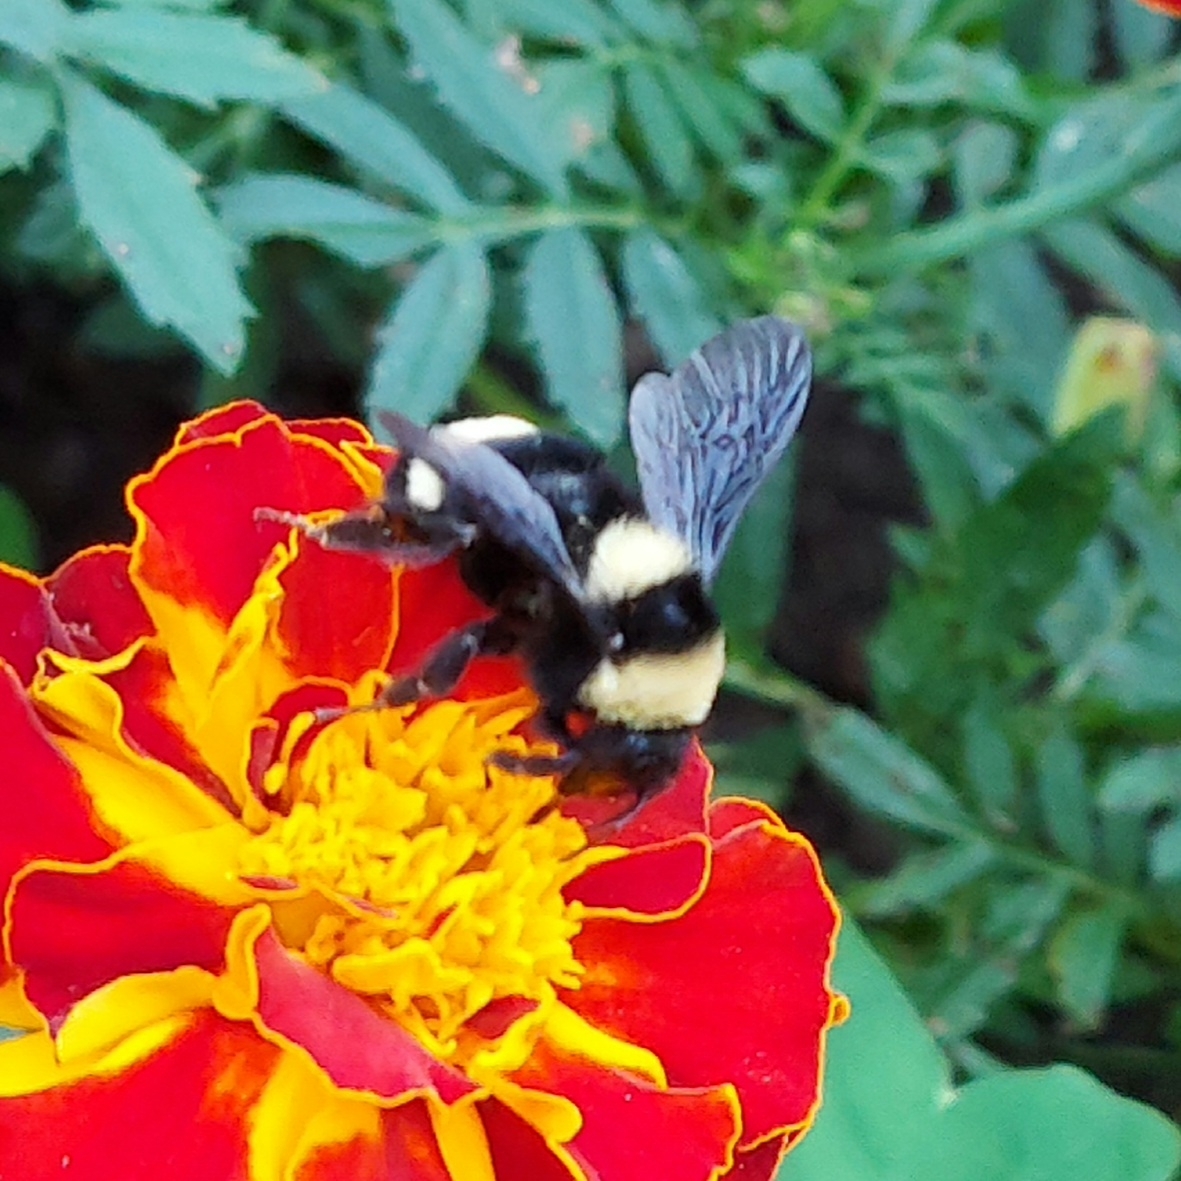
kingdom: Animalia
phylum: Arthropoda
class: Insecta
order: Hymenoptera
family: Apidae
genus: Bombus
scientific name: Bombus medius
